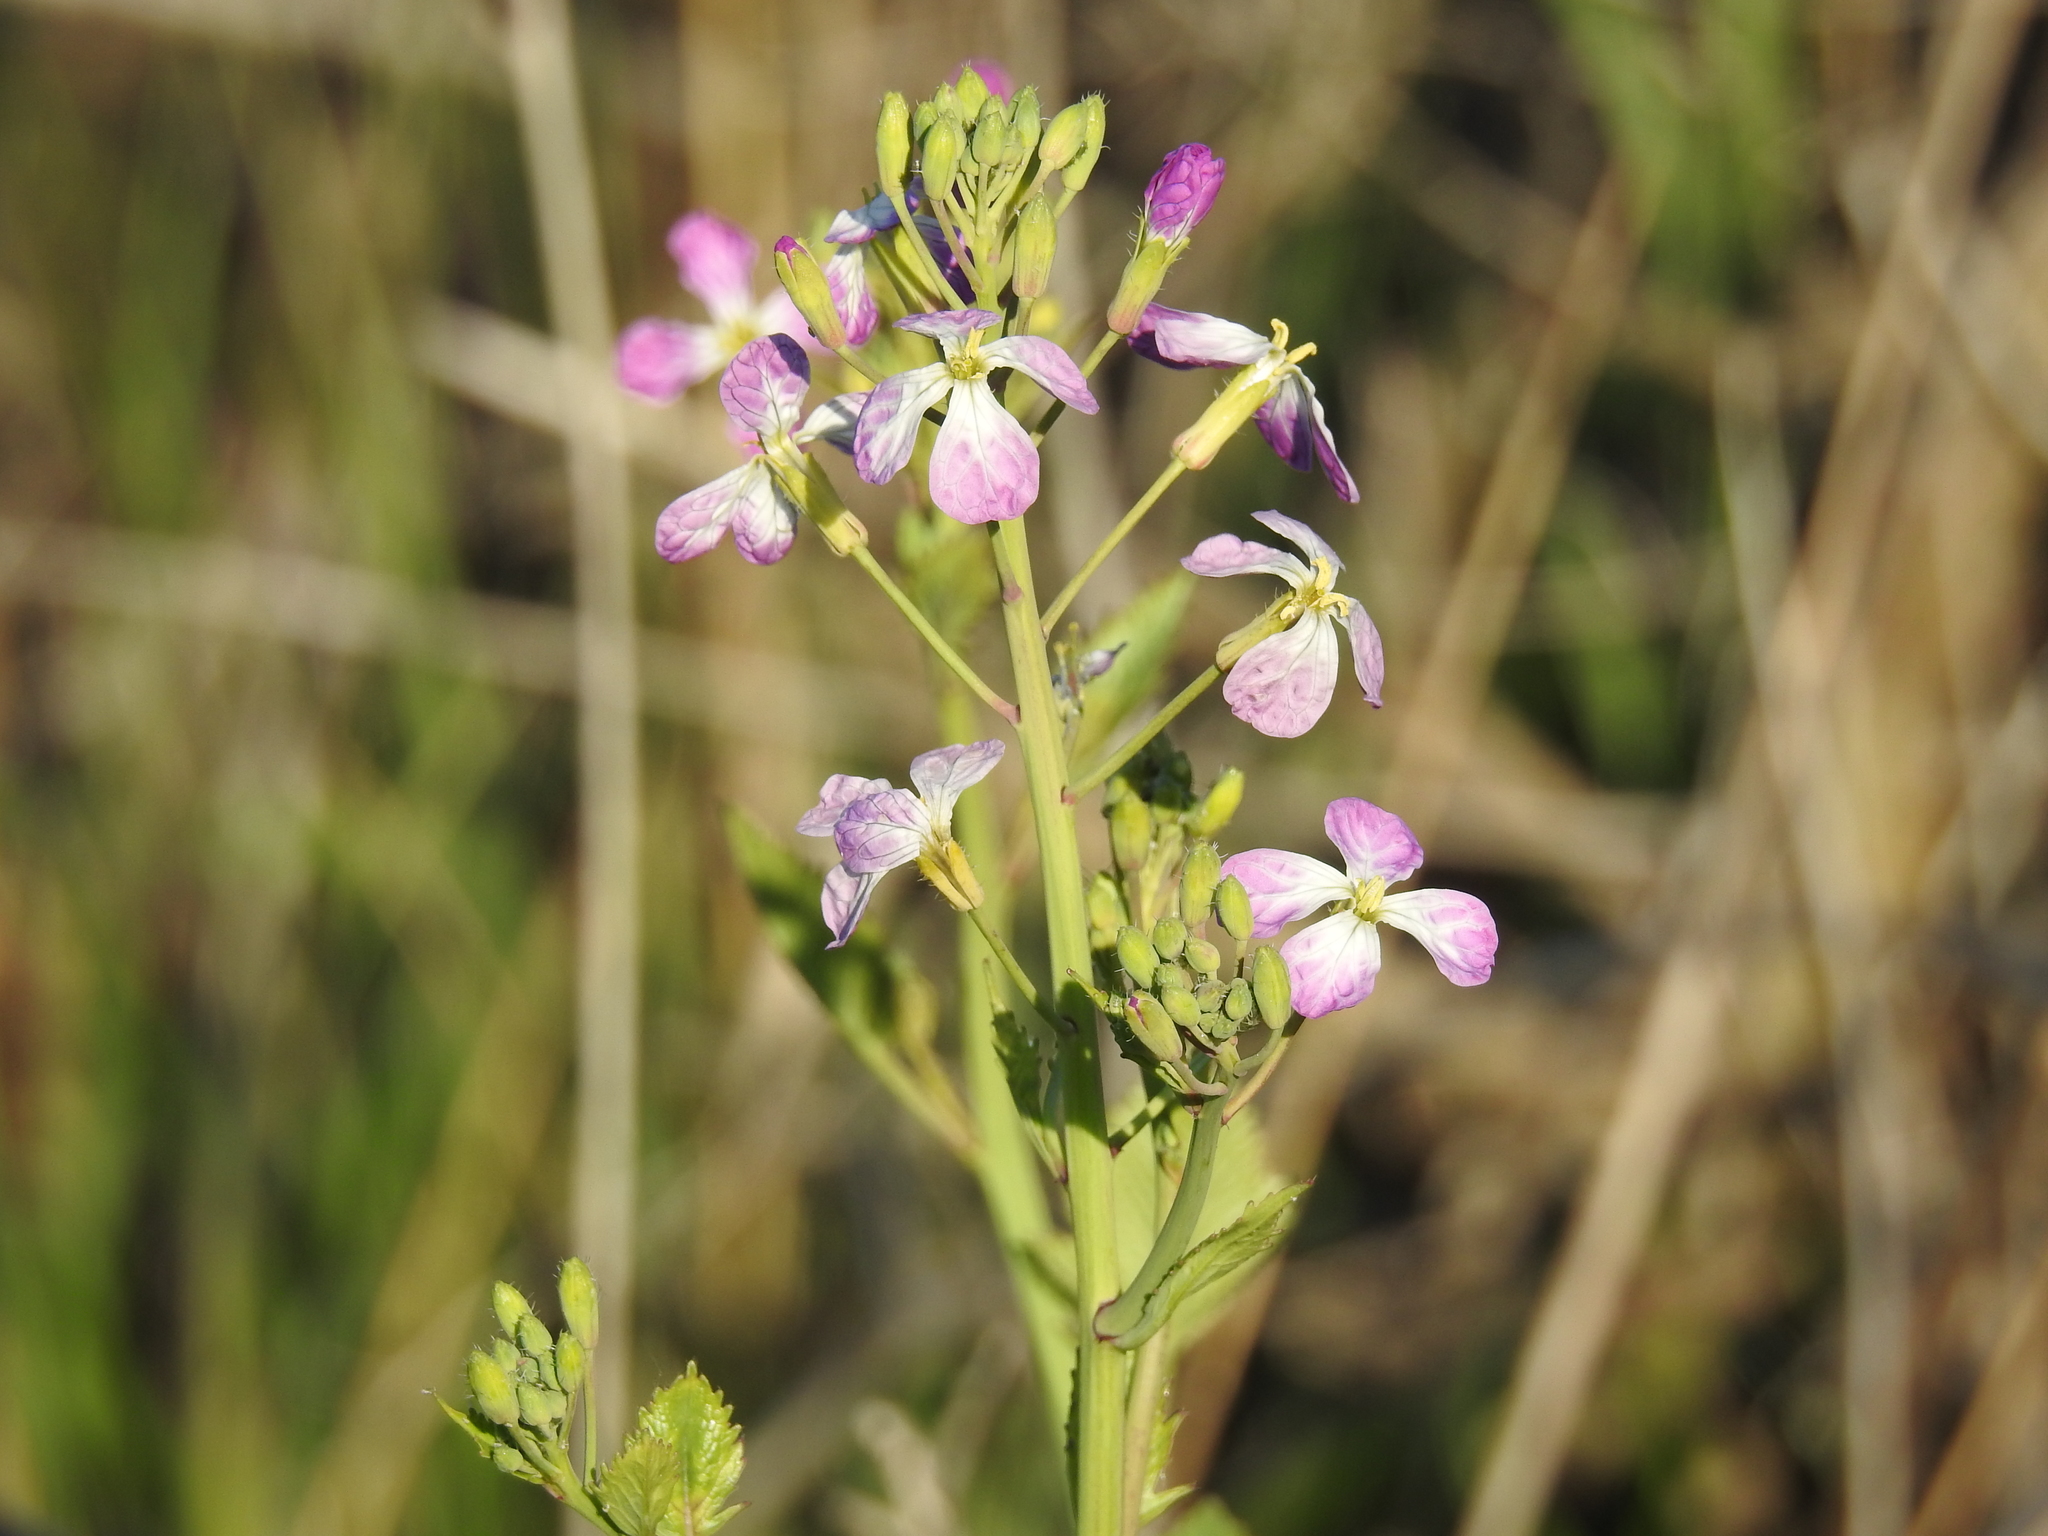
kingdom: Plantae
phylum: Tracheophyta
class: Magnoliopsida
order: Brassicales
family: Brassicaceae
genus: Raphanus
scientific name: Raphanus sativus
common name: Cultivated radish
